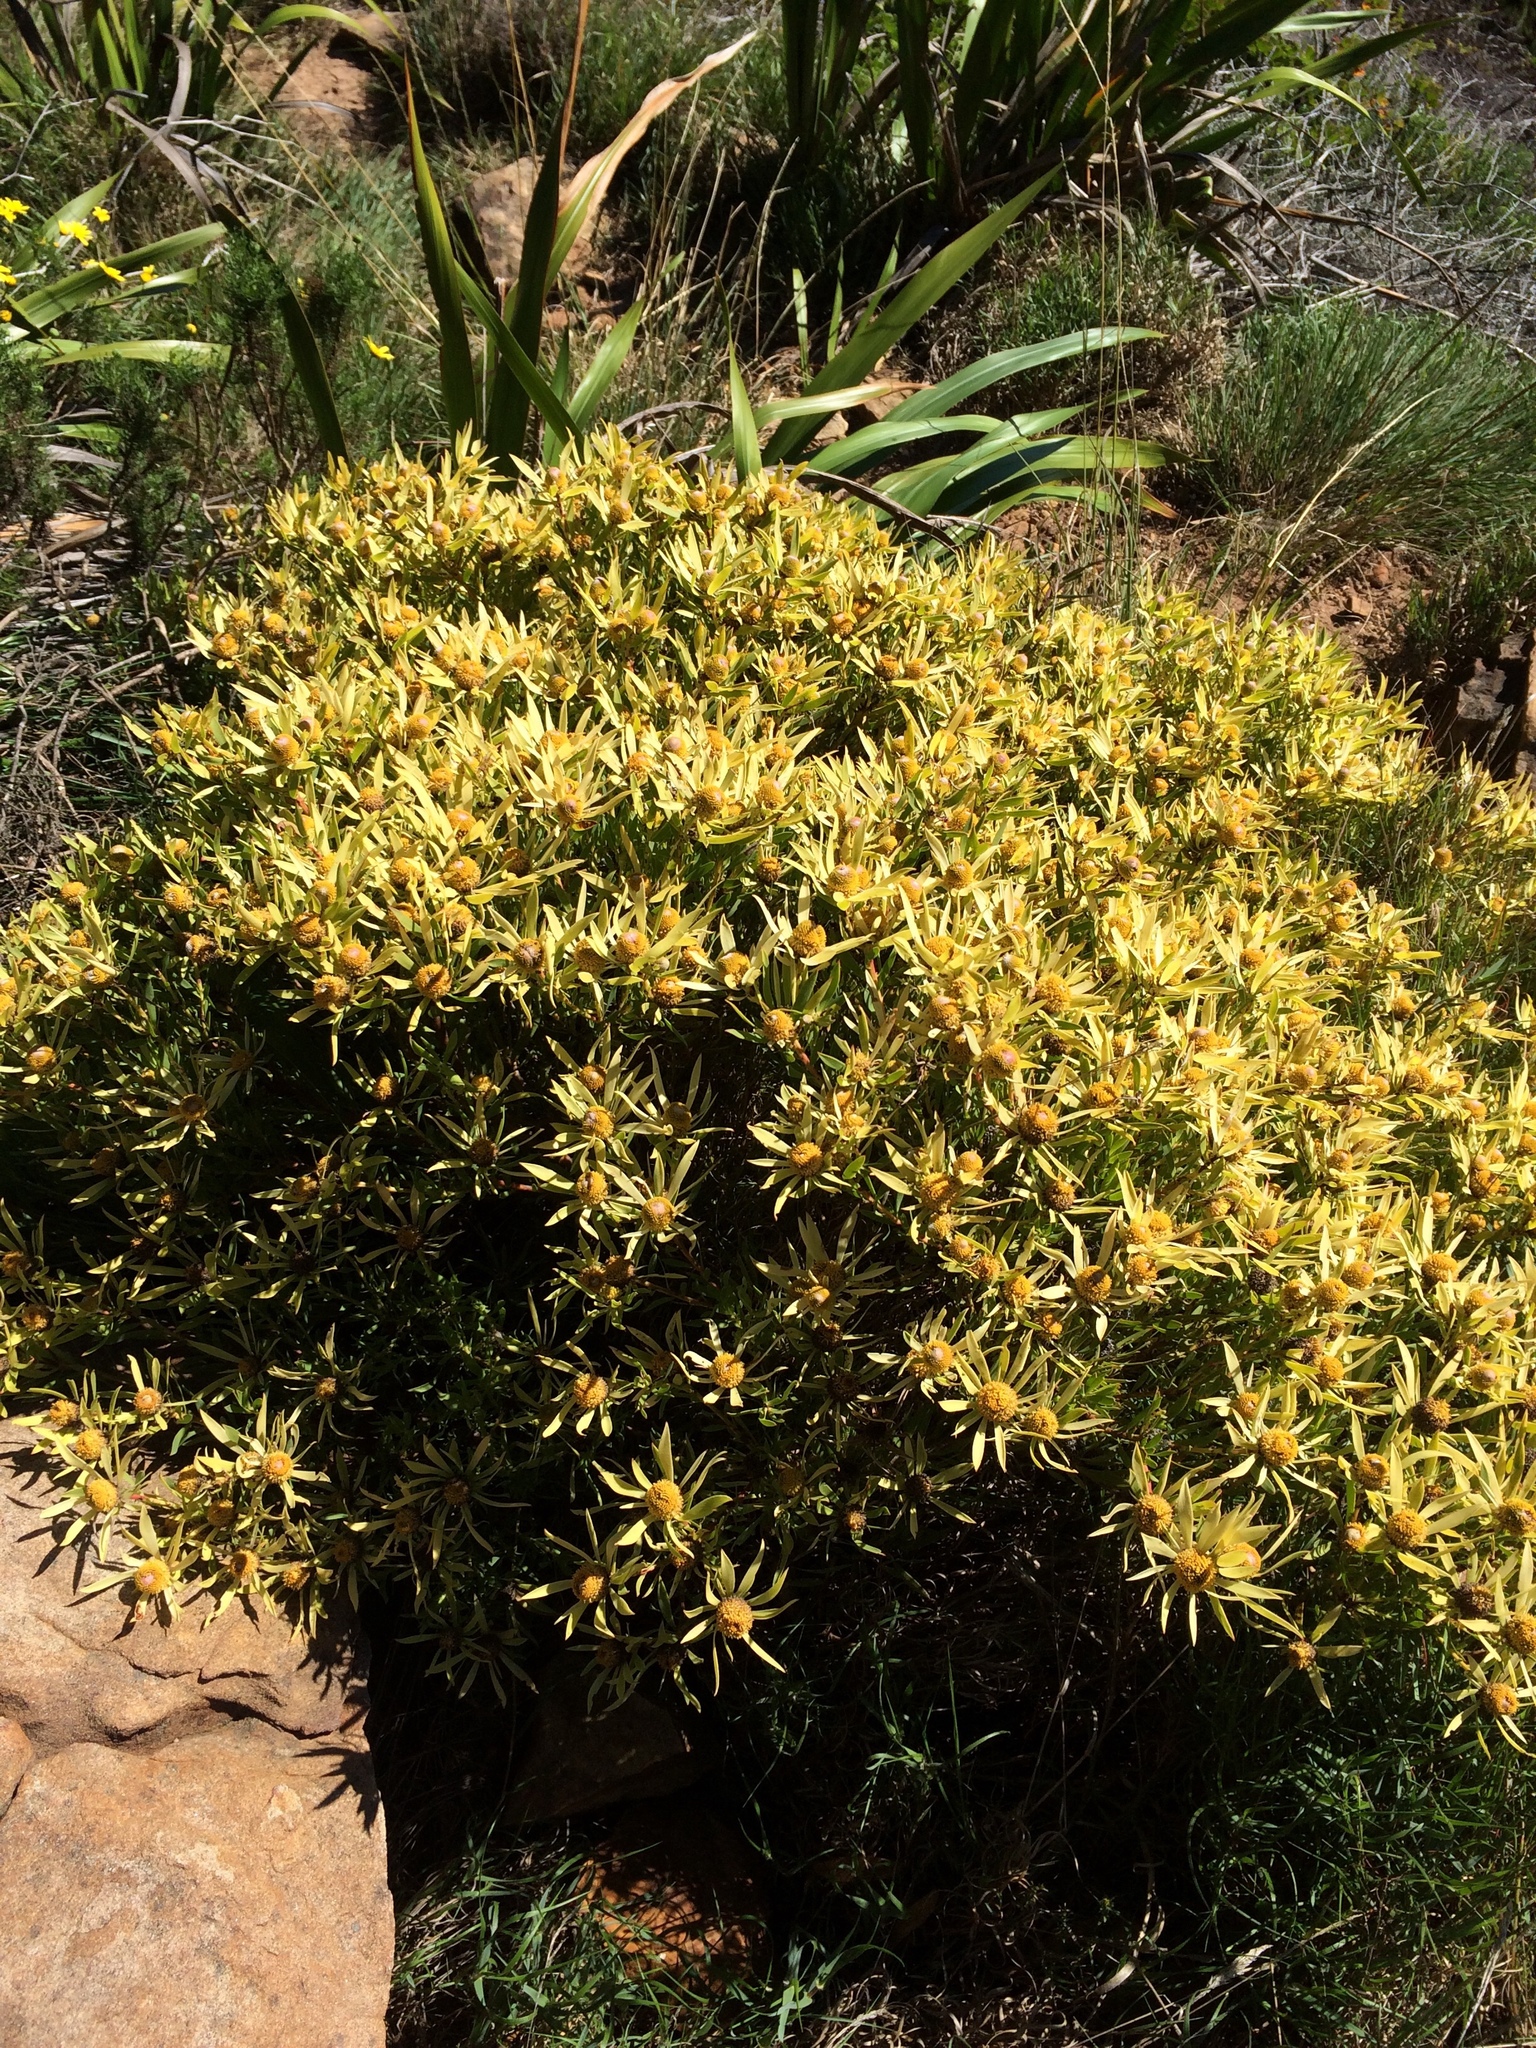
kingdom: Plantae
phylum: Tracheophyta
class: Magnoliopsida
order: Proteales
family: Proteaceae
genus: Leucadendron
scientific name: Leucadendron salignum
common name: Common sunshine conebush
